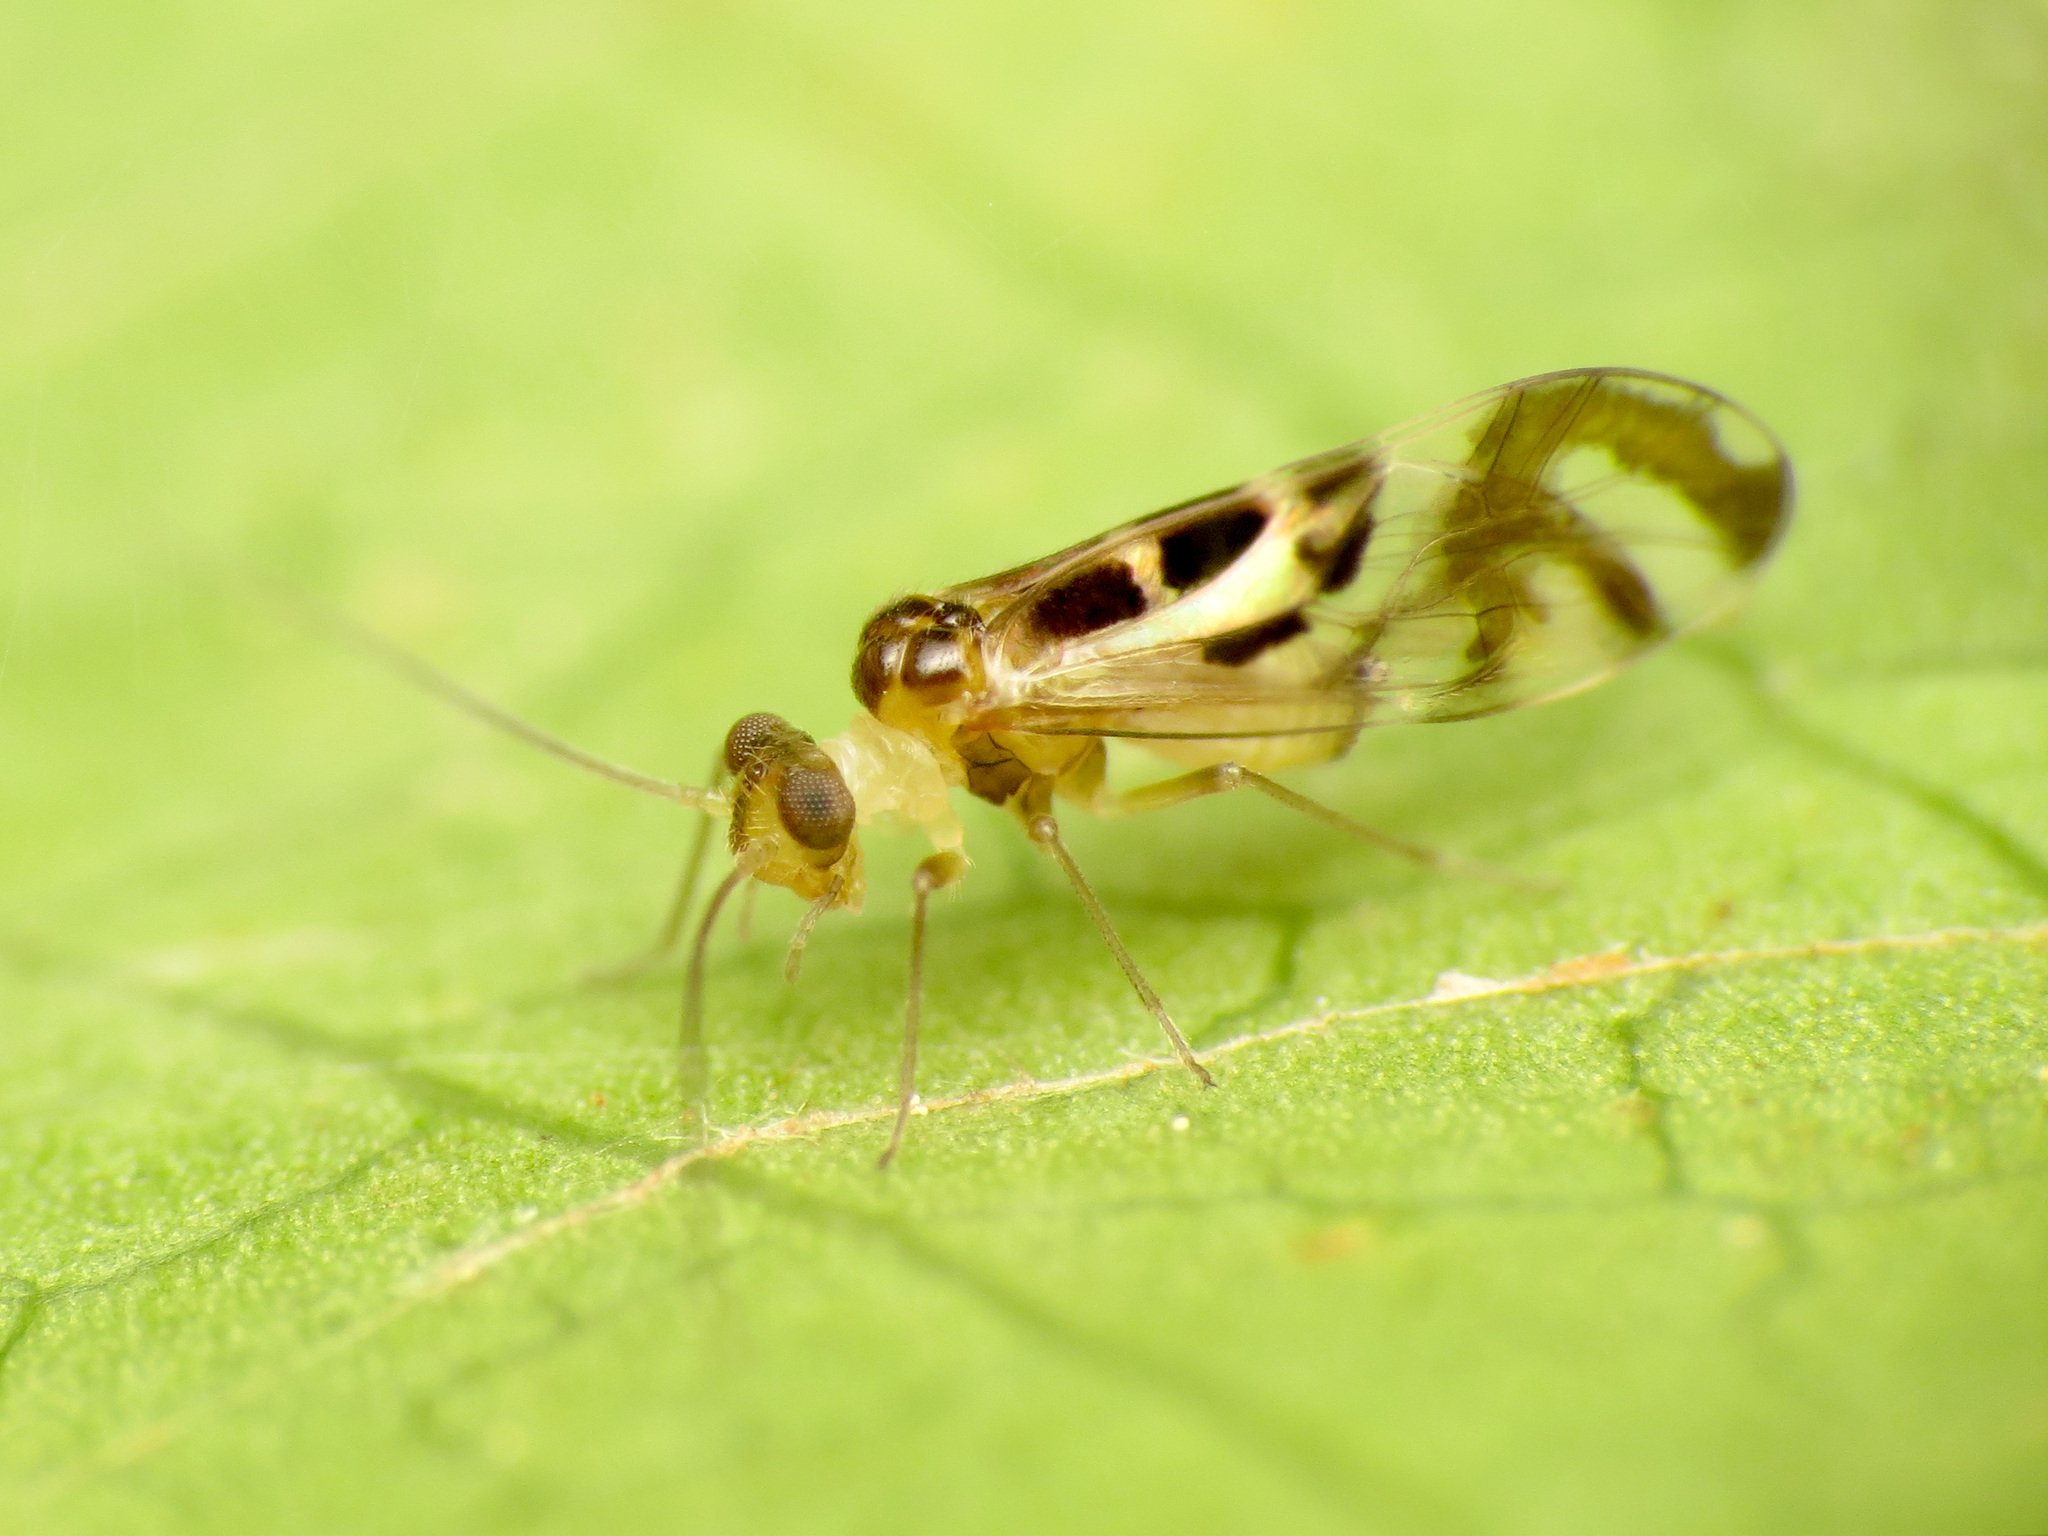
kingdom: Animalia
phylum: Arthropoda
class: Insecta
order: Psocodea
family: Stenopsocidae
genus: Graphopsocus
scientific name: Graphopsocus cruciatus
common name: Lizard bark louse
